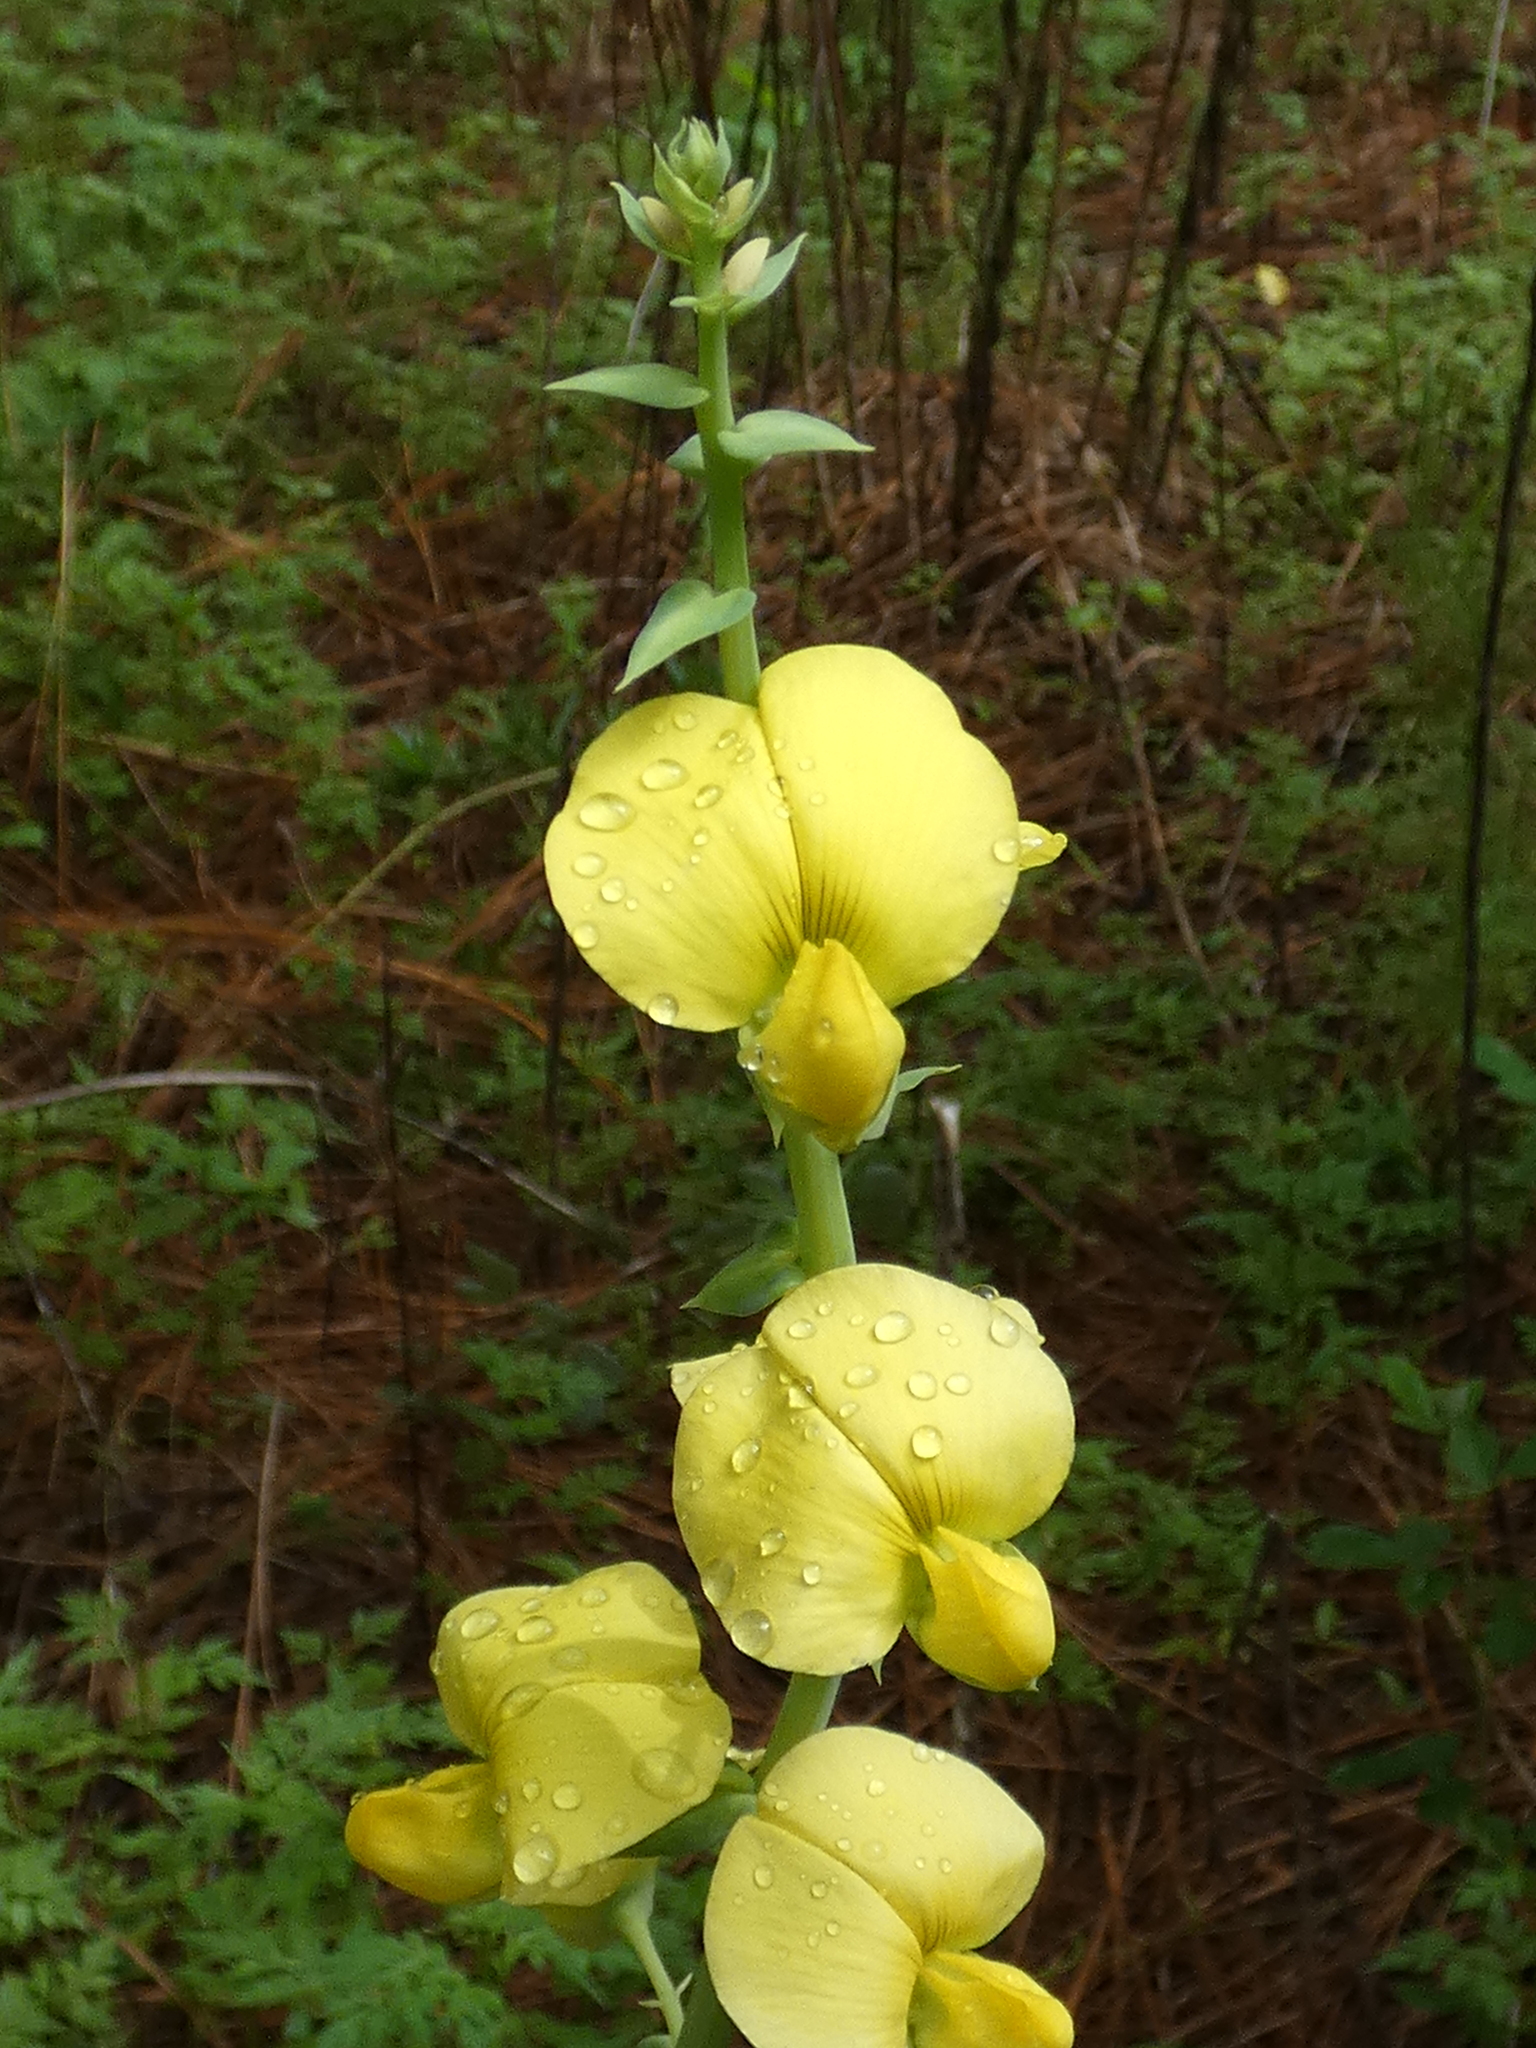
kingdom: Plantae
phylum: Tracheophyta
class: Magnoliopsida
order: Fabales
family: Fabaceae
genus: Crotalaria
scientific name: Crotalaria spectabilis
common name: Showy rattlebox
